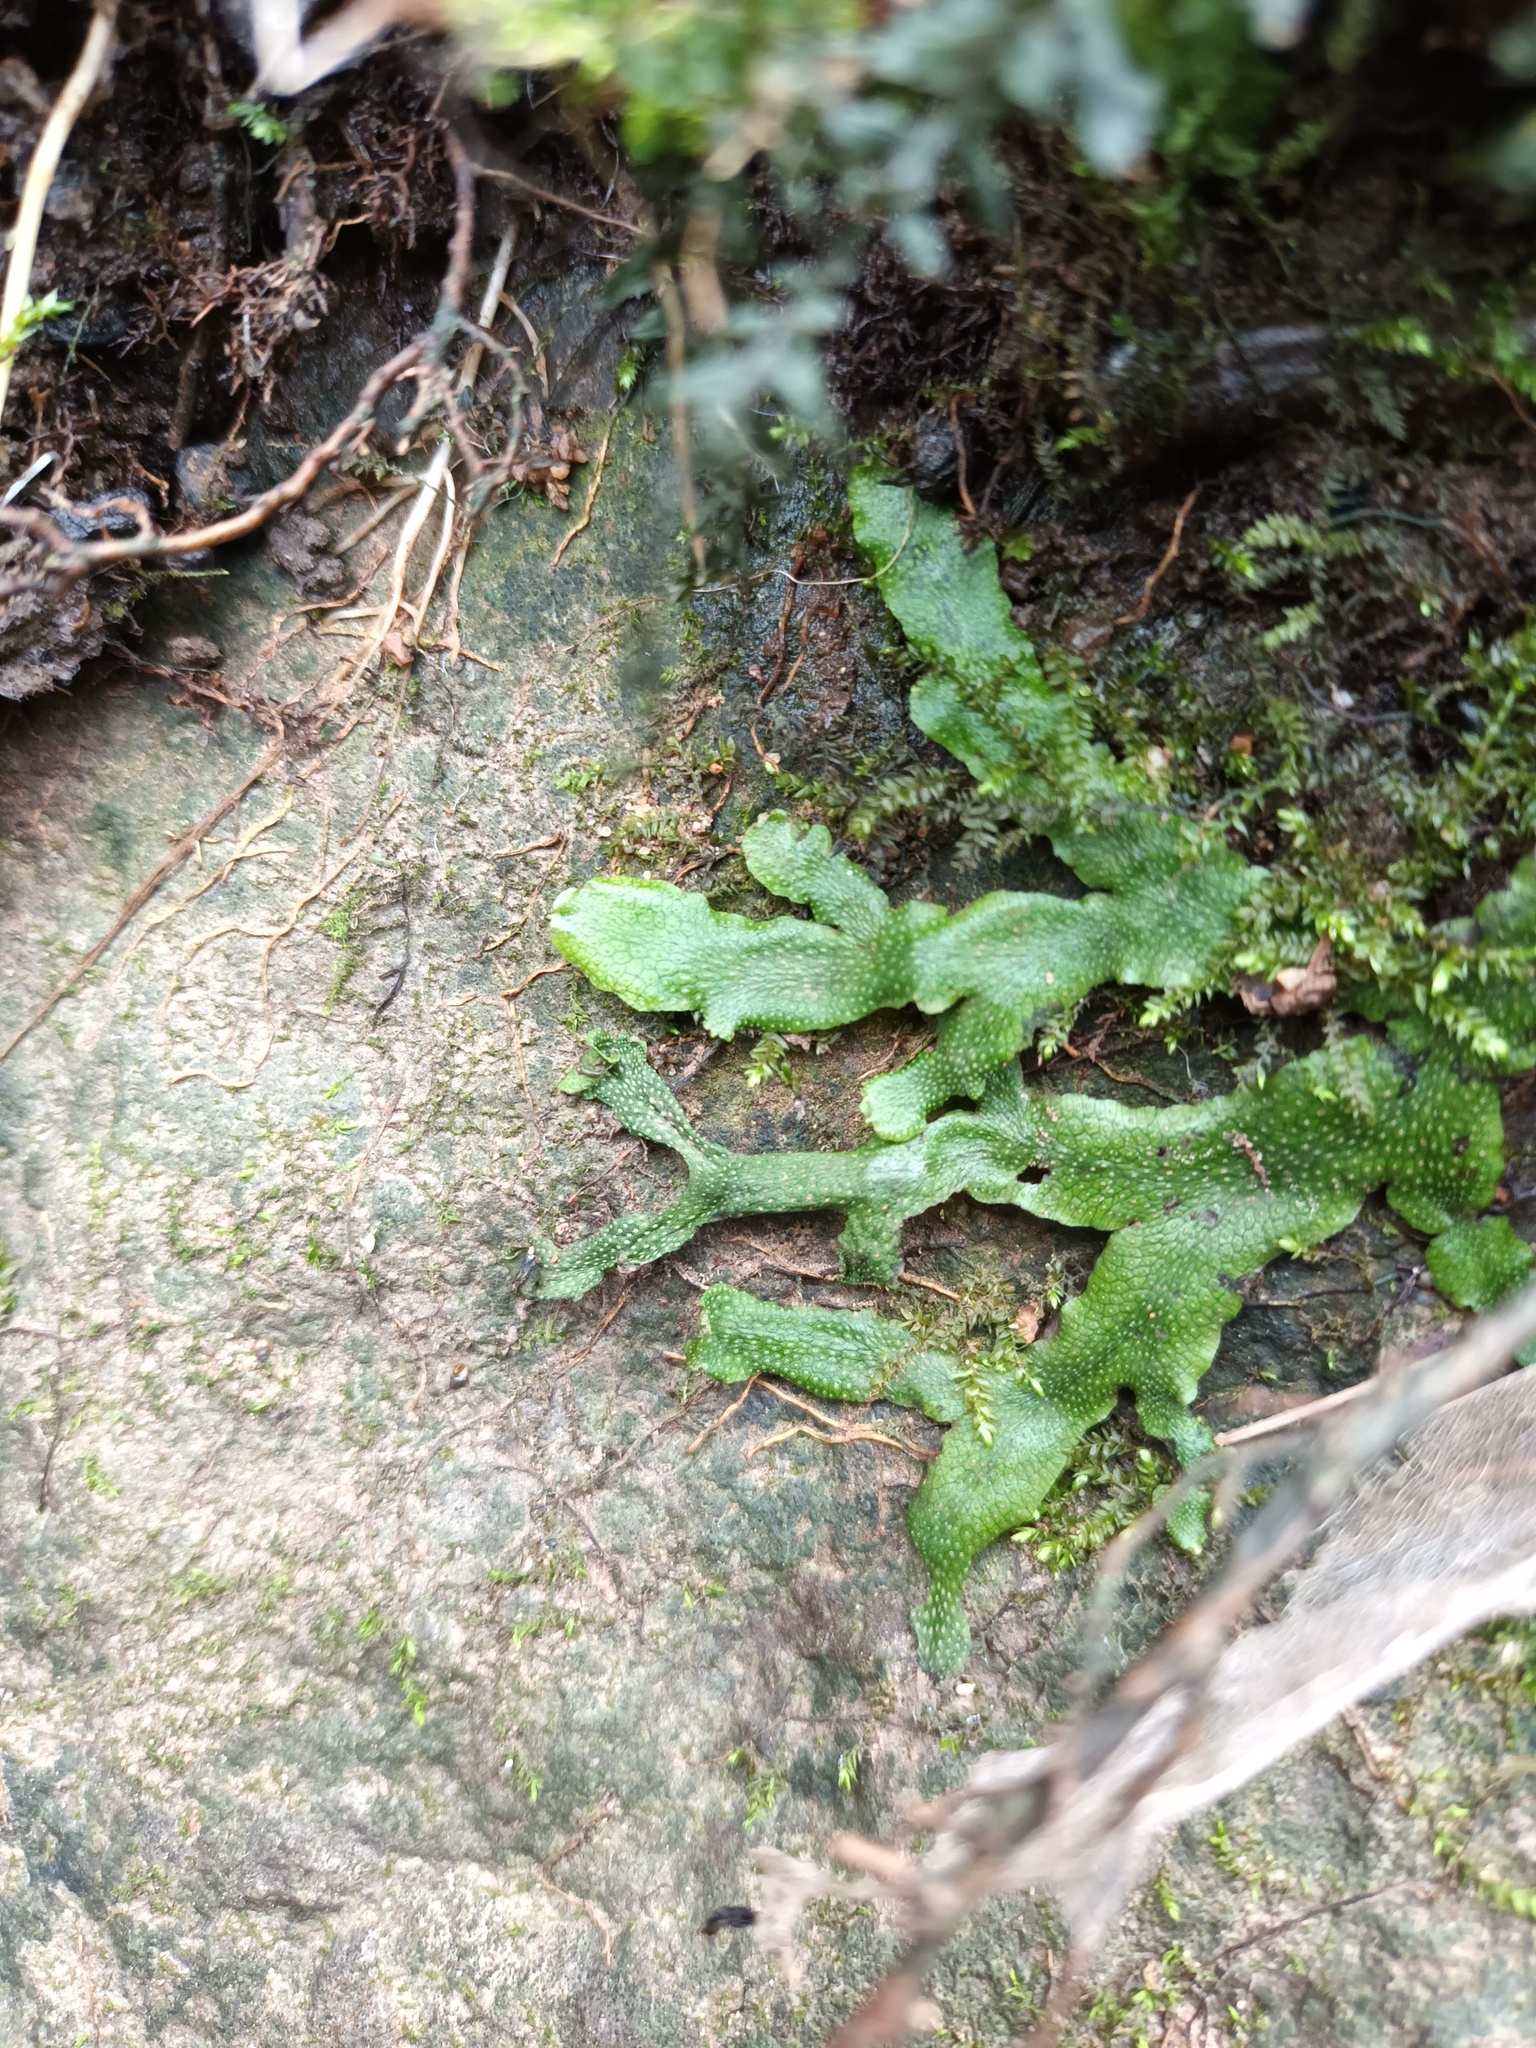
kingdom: Plantae
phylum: Marchantiophyta
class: Marchantiopsida
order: Marchantiales
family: Conocephalaceae
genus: Conocephalum
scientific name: Conocephalum conicum
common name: Great scented liverwort
